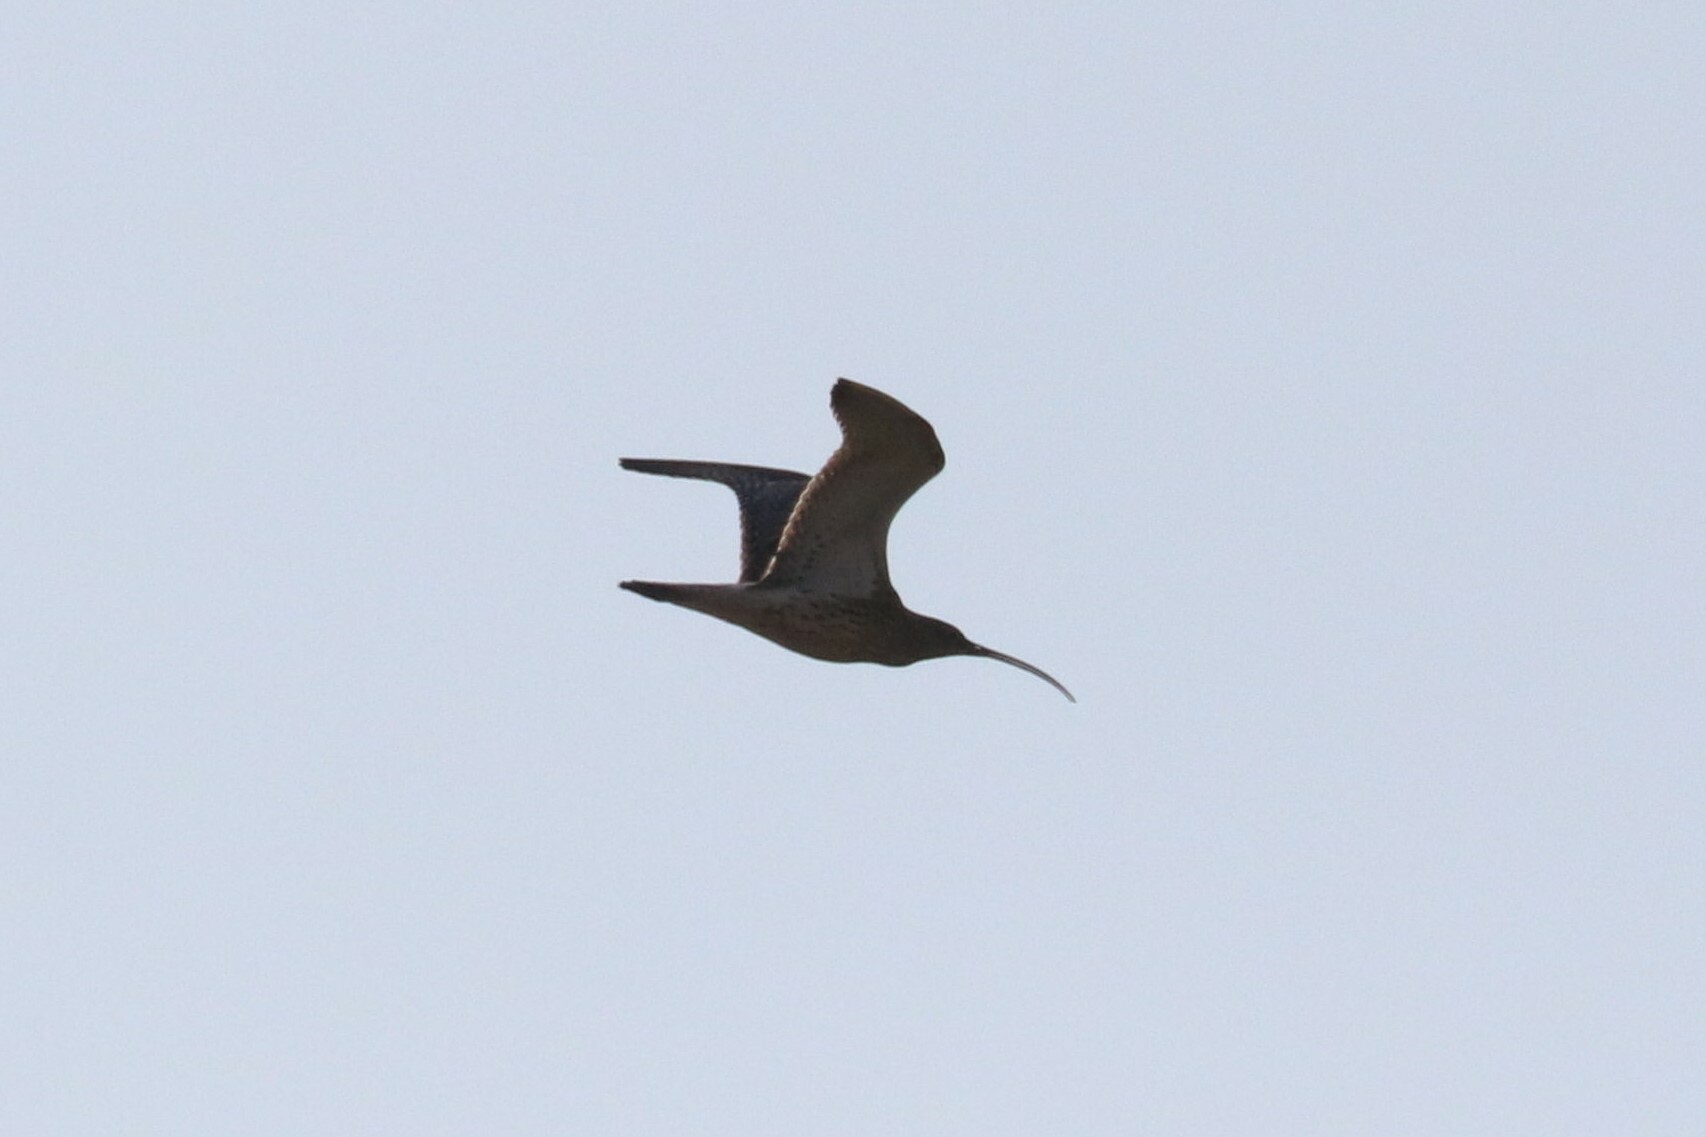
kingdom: Animalia
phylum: Chordata
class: Aves
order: Charadriiformes
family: Scolopacidae
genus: Numenius
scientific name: Numenius arquata
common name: Eurasian curlew
